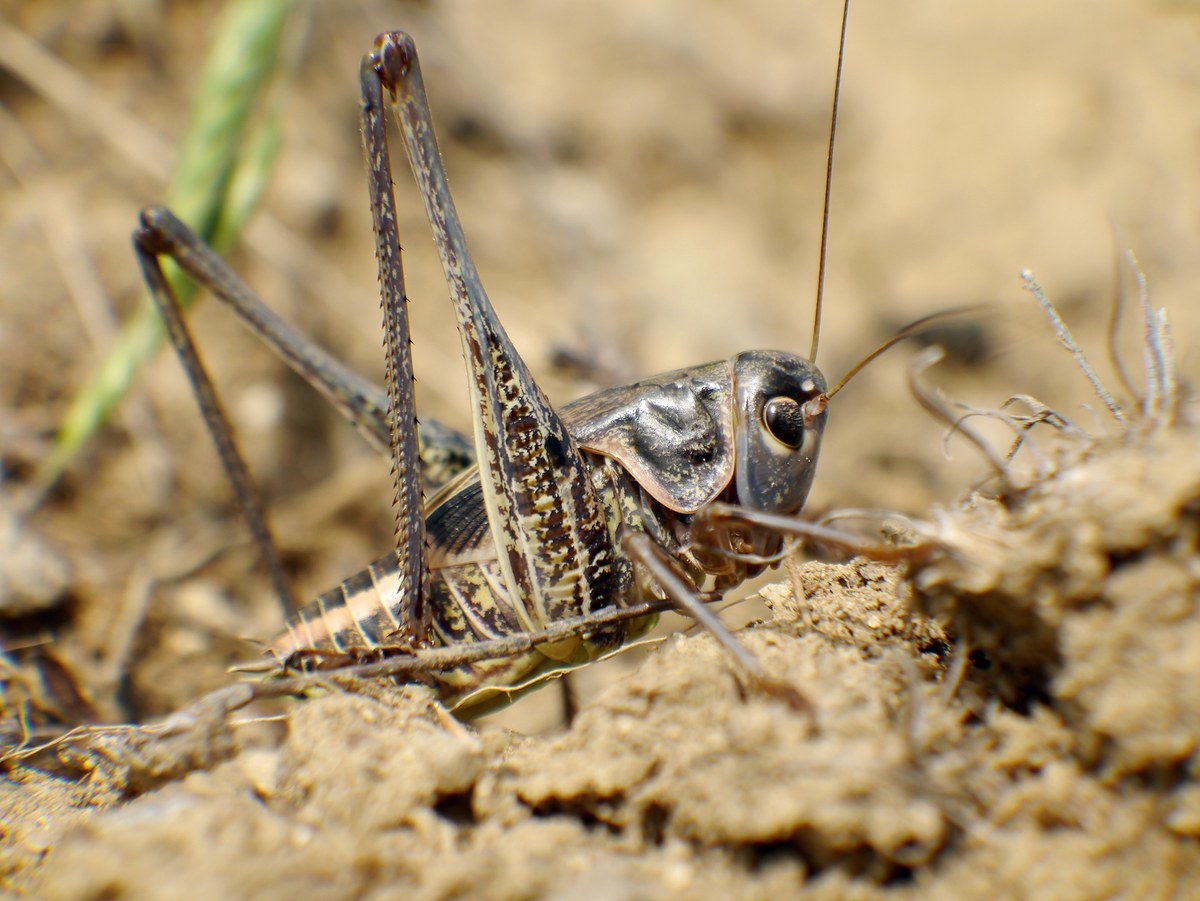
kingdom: Animalia
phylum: Arthropoda
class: Insecta
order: Orthoptera
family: Tettigoniidae
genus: Decticus
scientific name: Decticus albifrons
